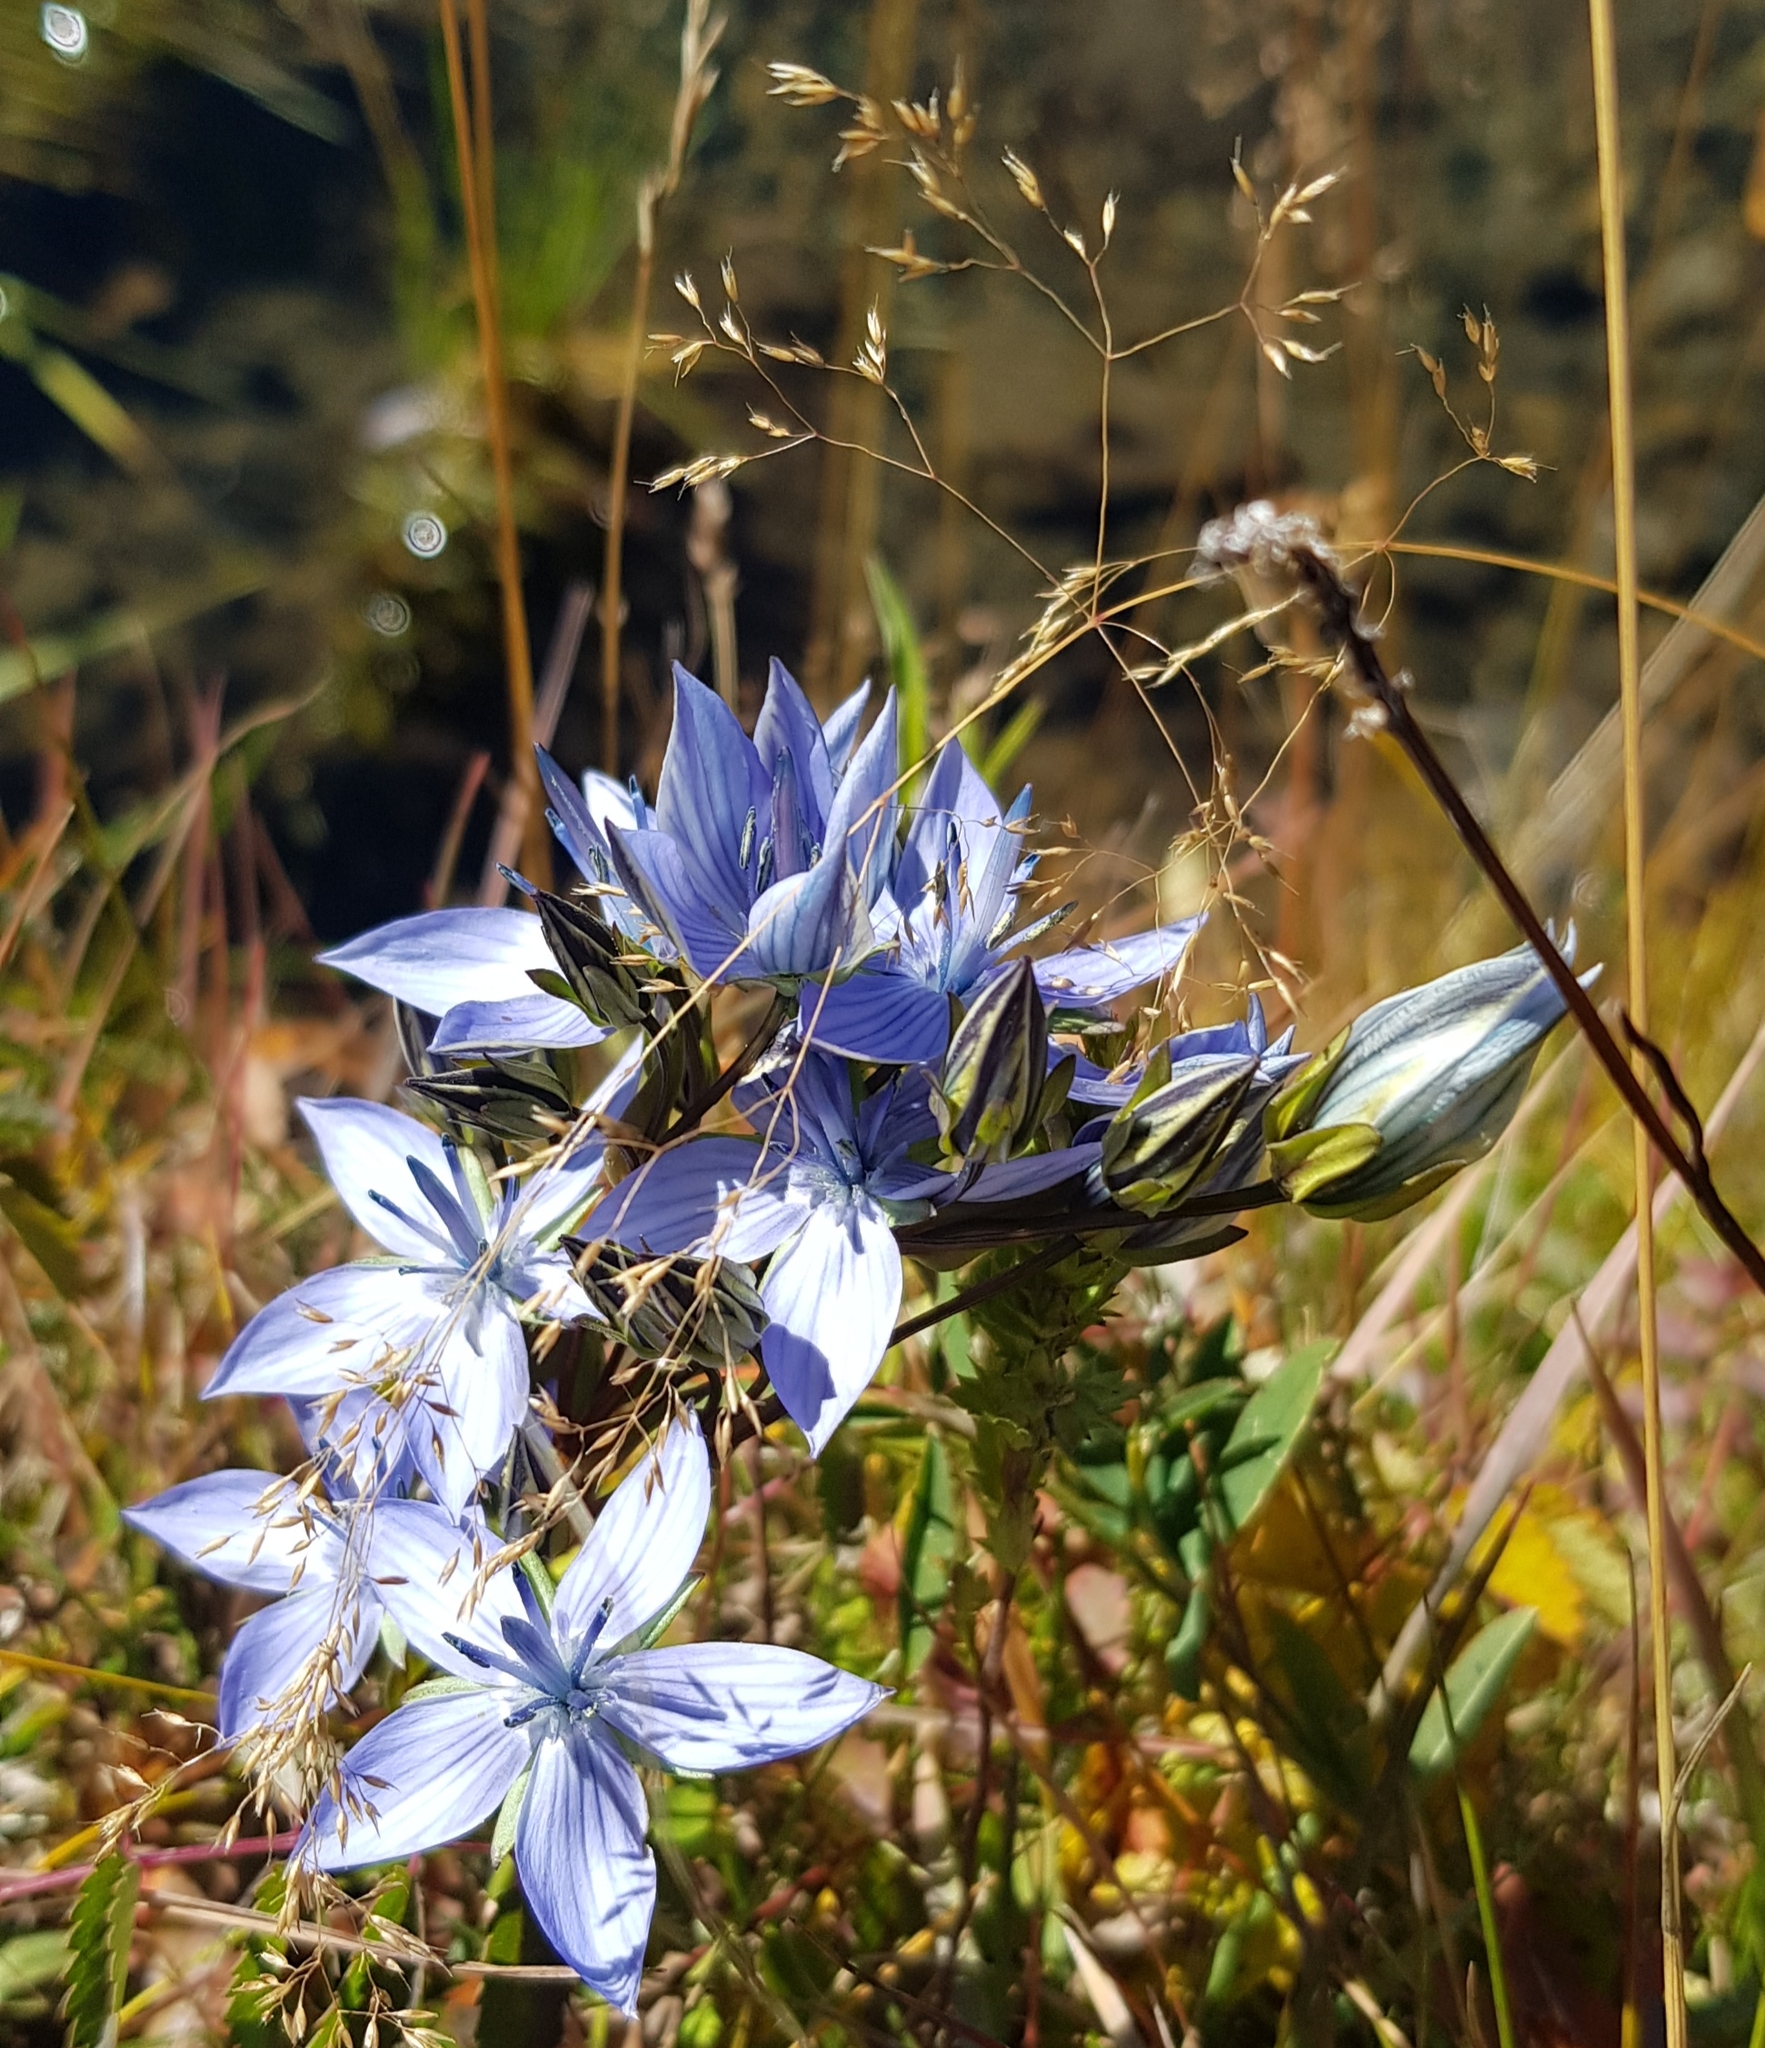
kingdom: Plantae
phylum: Tracheophyta
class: Magnoliopsida
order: Gentianales
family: Gentianaceae
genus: Lomatogonium
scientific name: Lomatogonium carinthiacum
